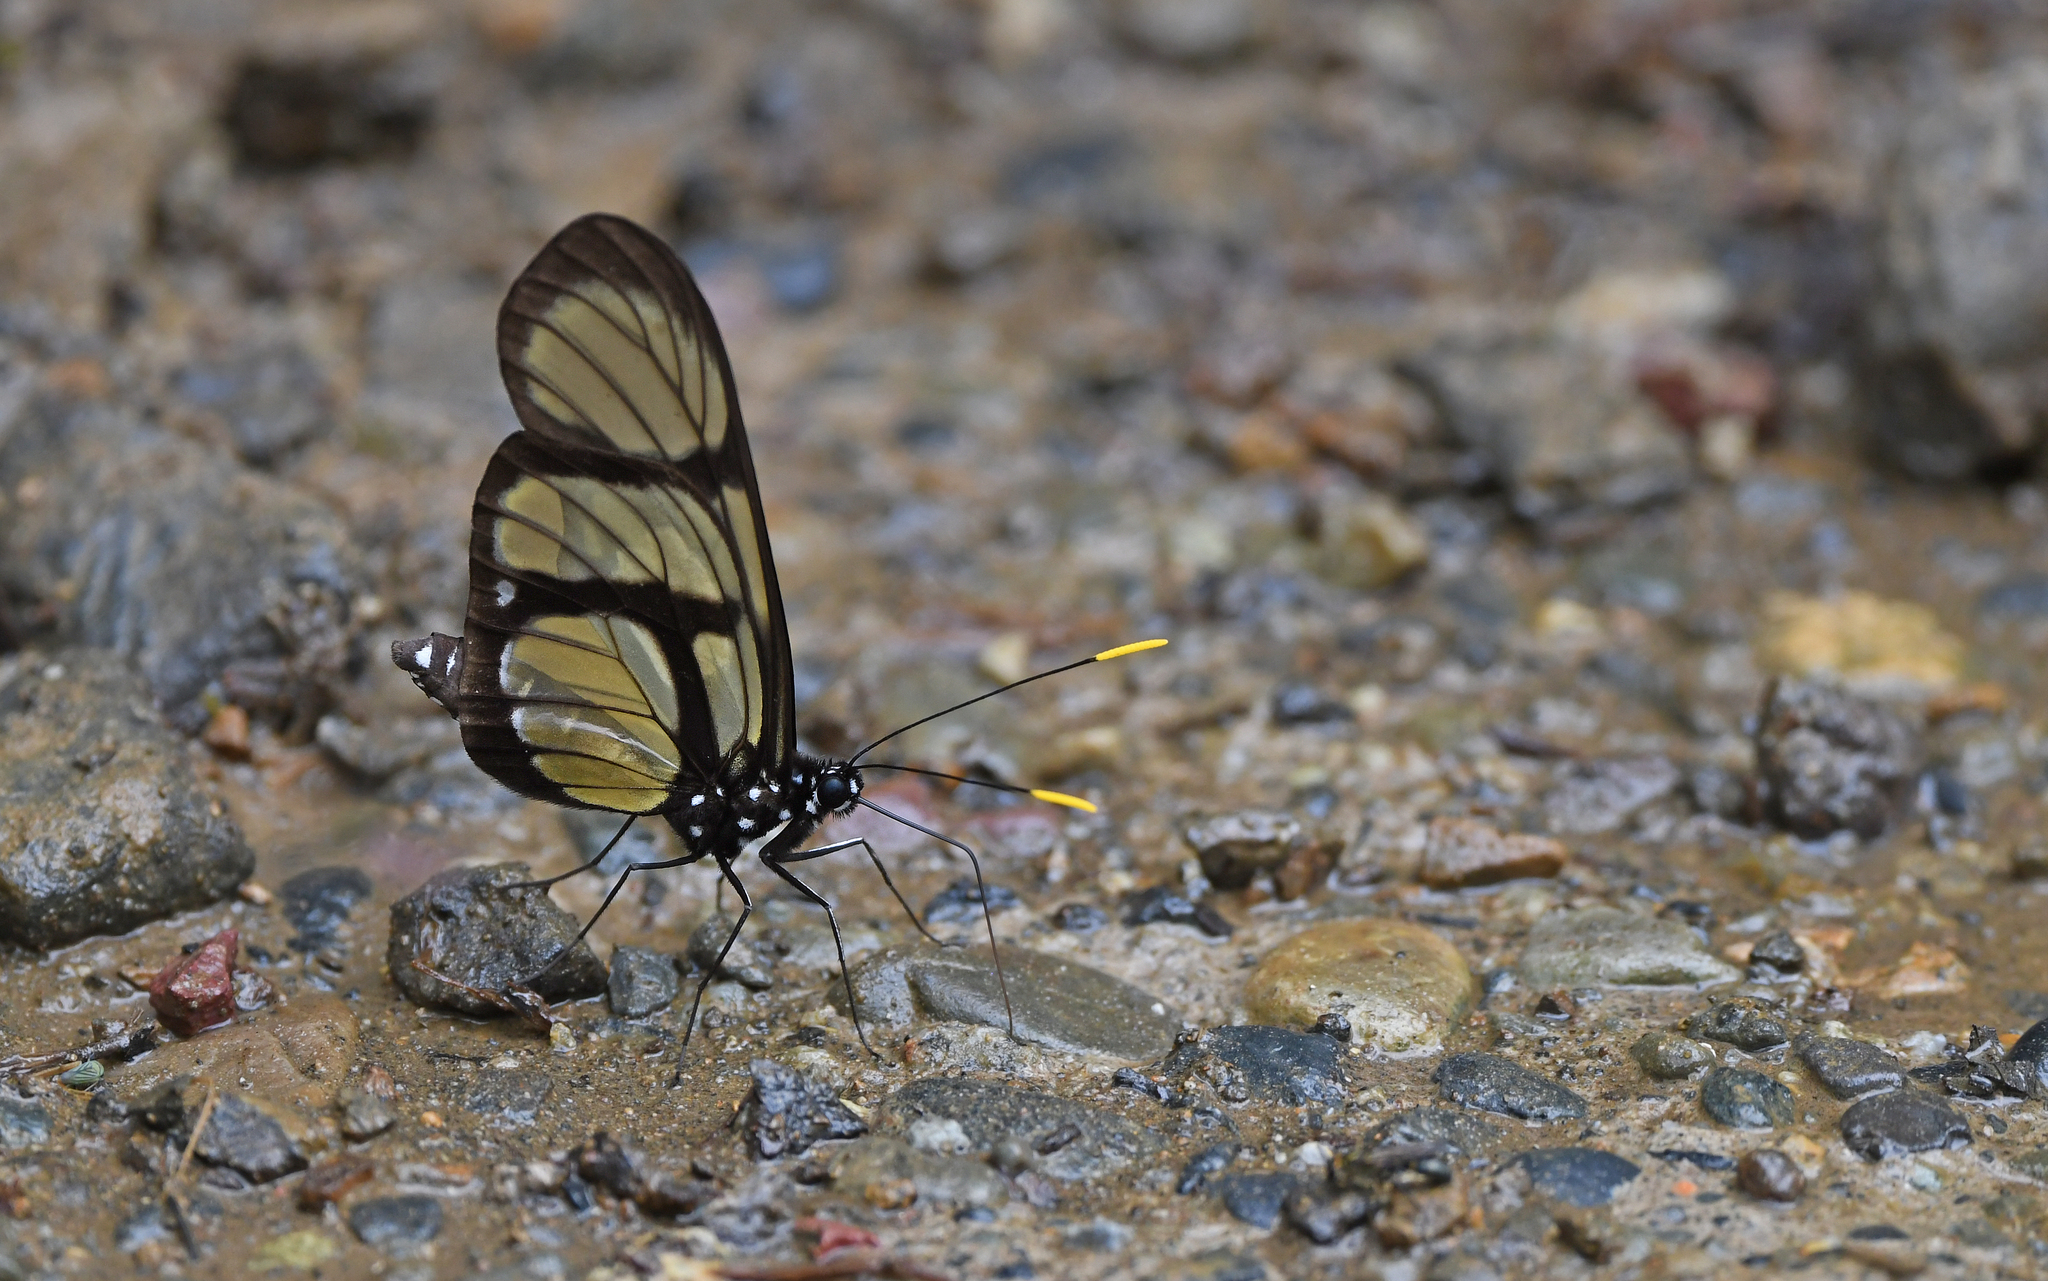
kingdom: Animalia
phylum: Arthropoda
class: Insecta
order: Lepidoptera
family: Pieridae
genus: Patia
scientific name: Patia orise
